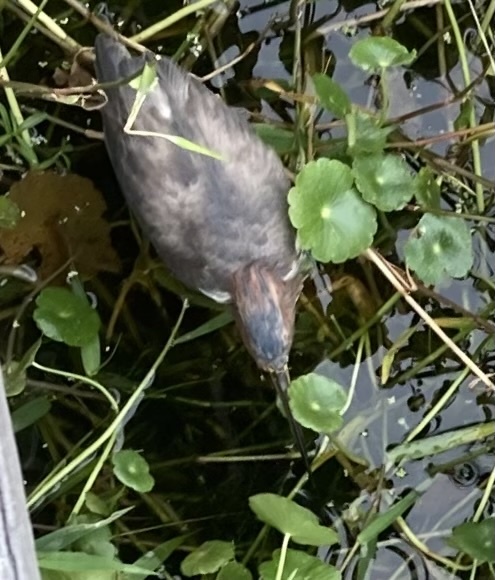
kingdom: Animalia
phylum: Chordata
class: Aves
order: Pelecaniformes
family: Ardeidae
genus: Butorides
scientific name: Butorides virescens
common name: Green heron
